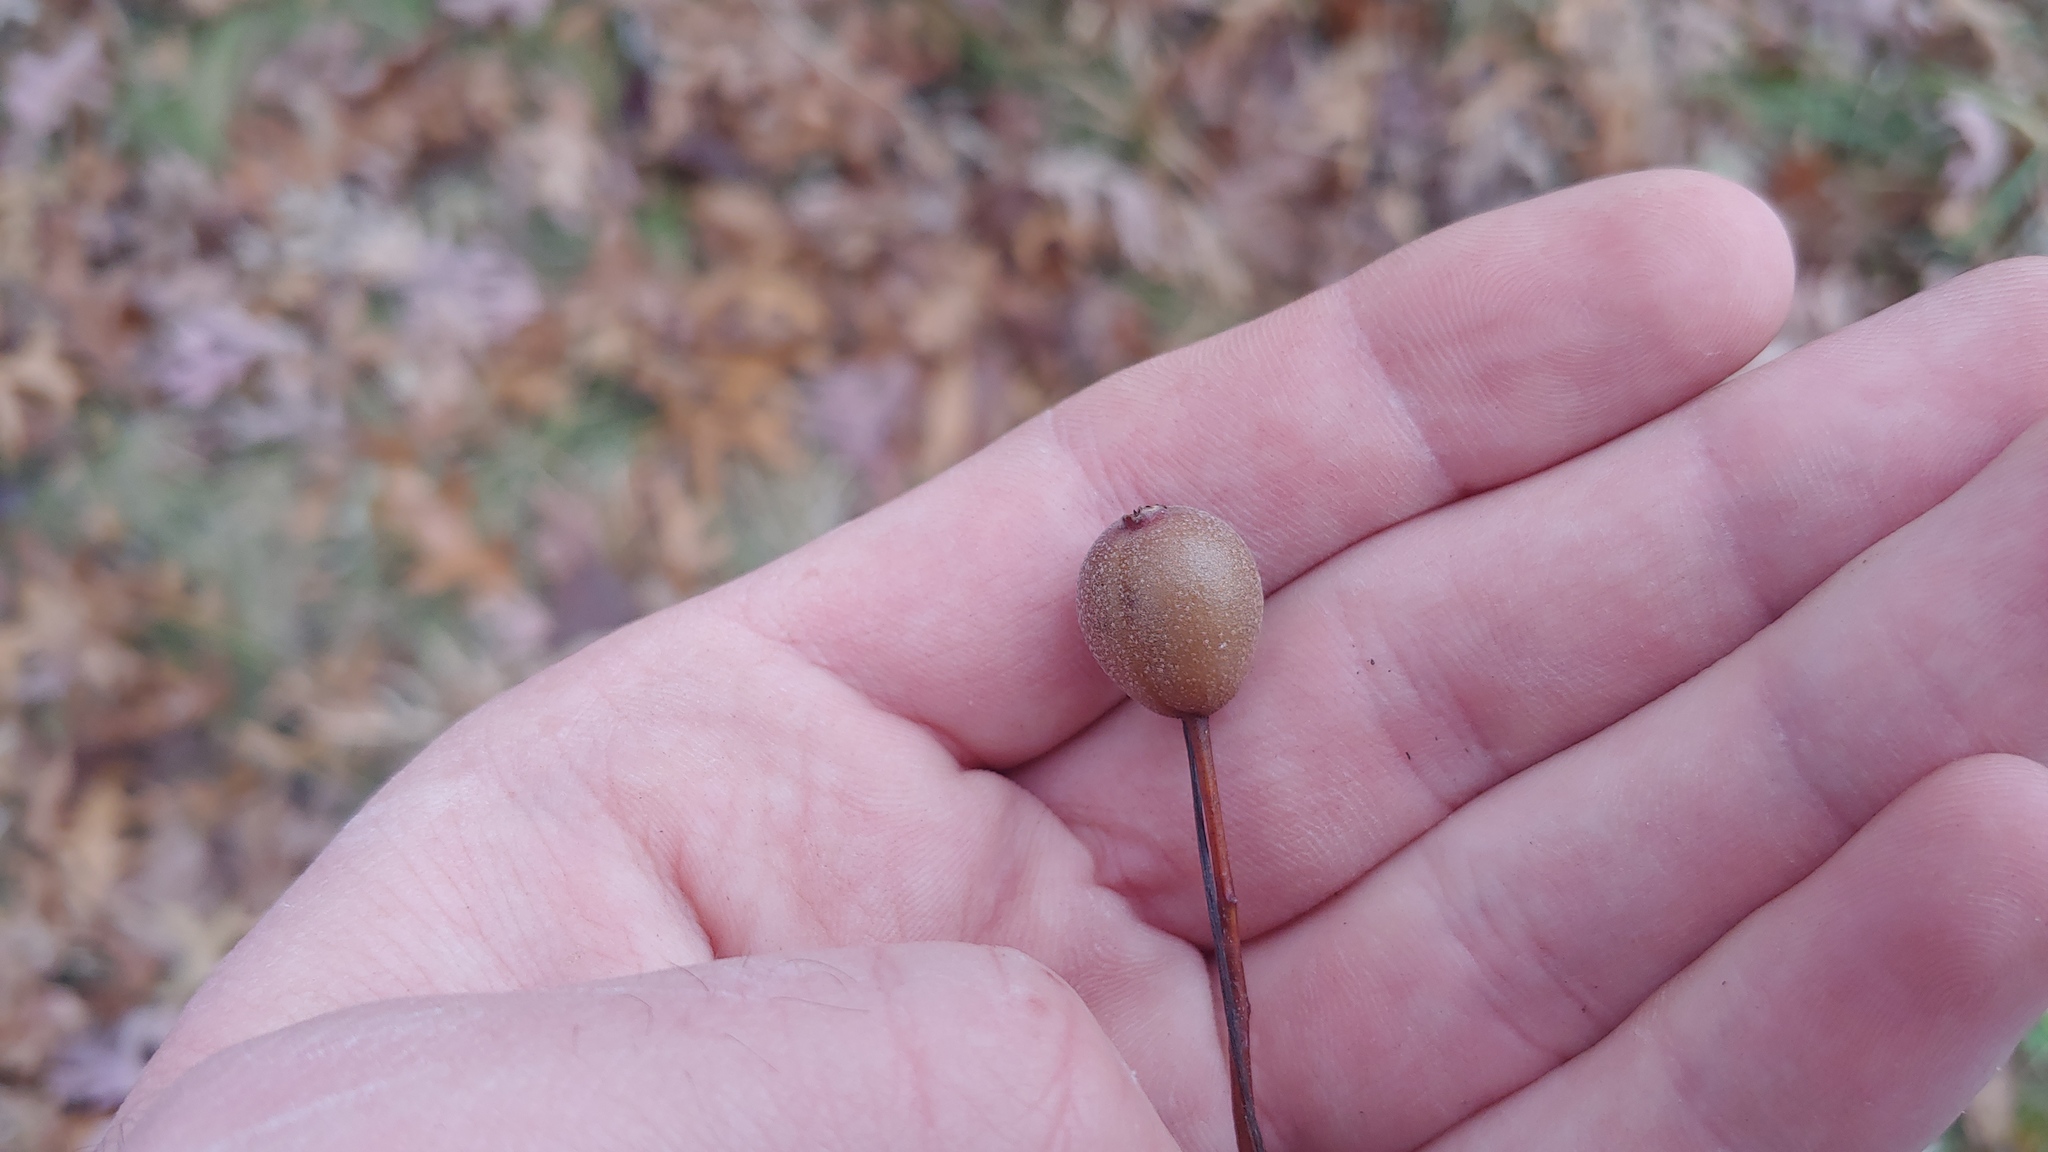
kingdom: Plantae
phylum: Tracheophyta
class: Magnoliopsida
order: Rosales
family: Rosaceae
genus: Pyrus
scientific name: Pyrus calleryana
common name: Callery pear
